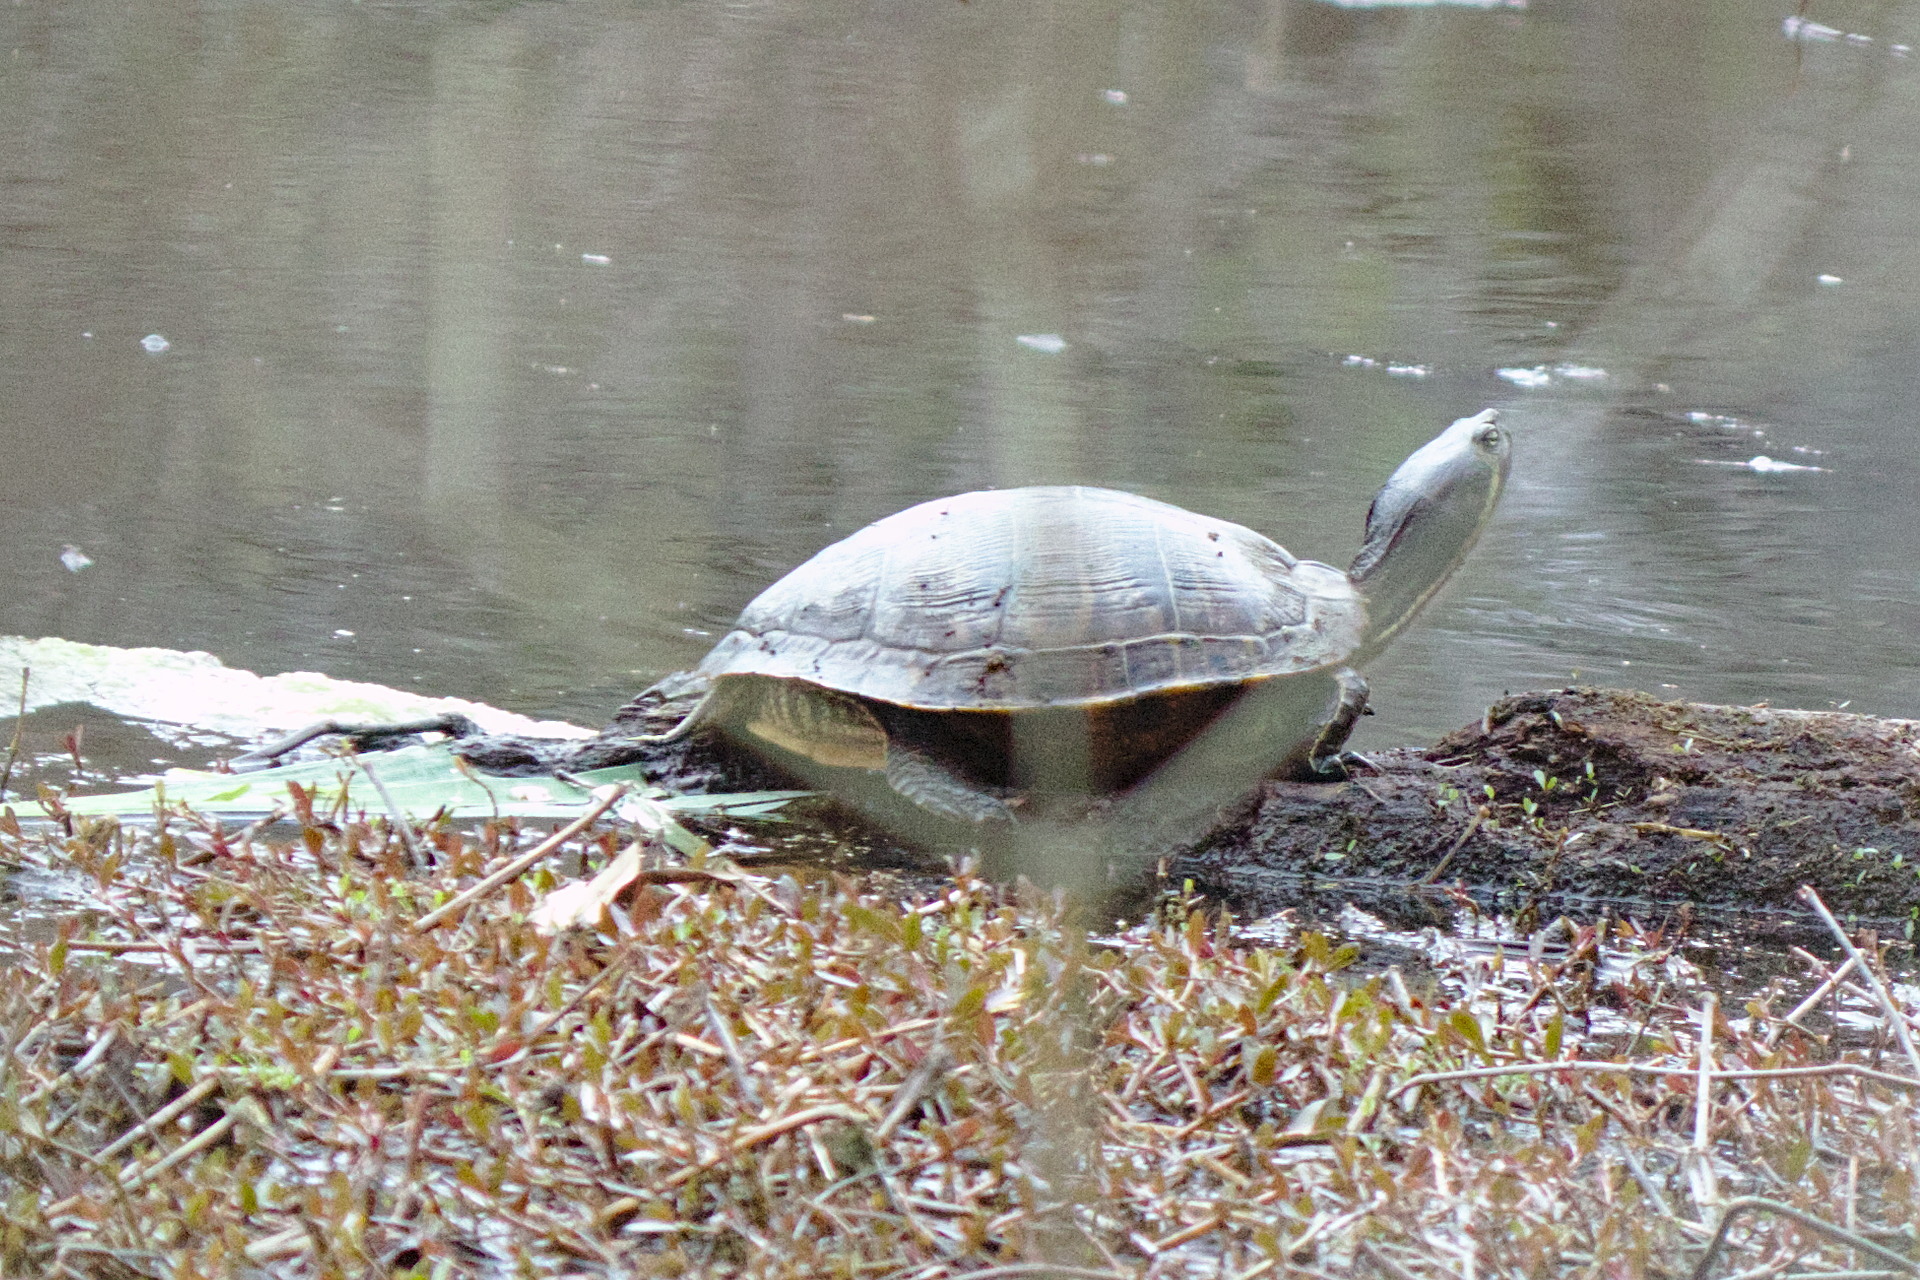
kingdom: Animalia
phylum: Chordata
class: Testudines
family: Emydidae
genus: Trachemys
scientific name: Trachemys scripta
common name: Slider
